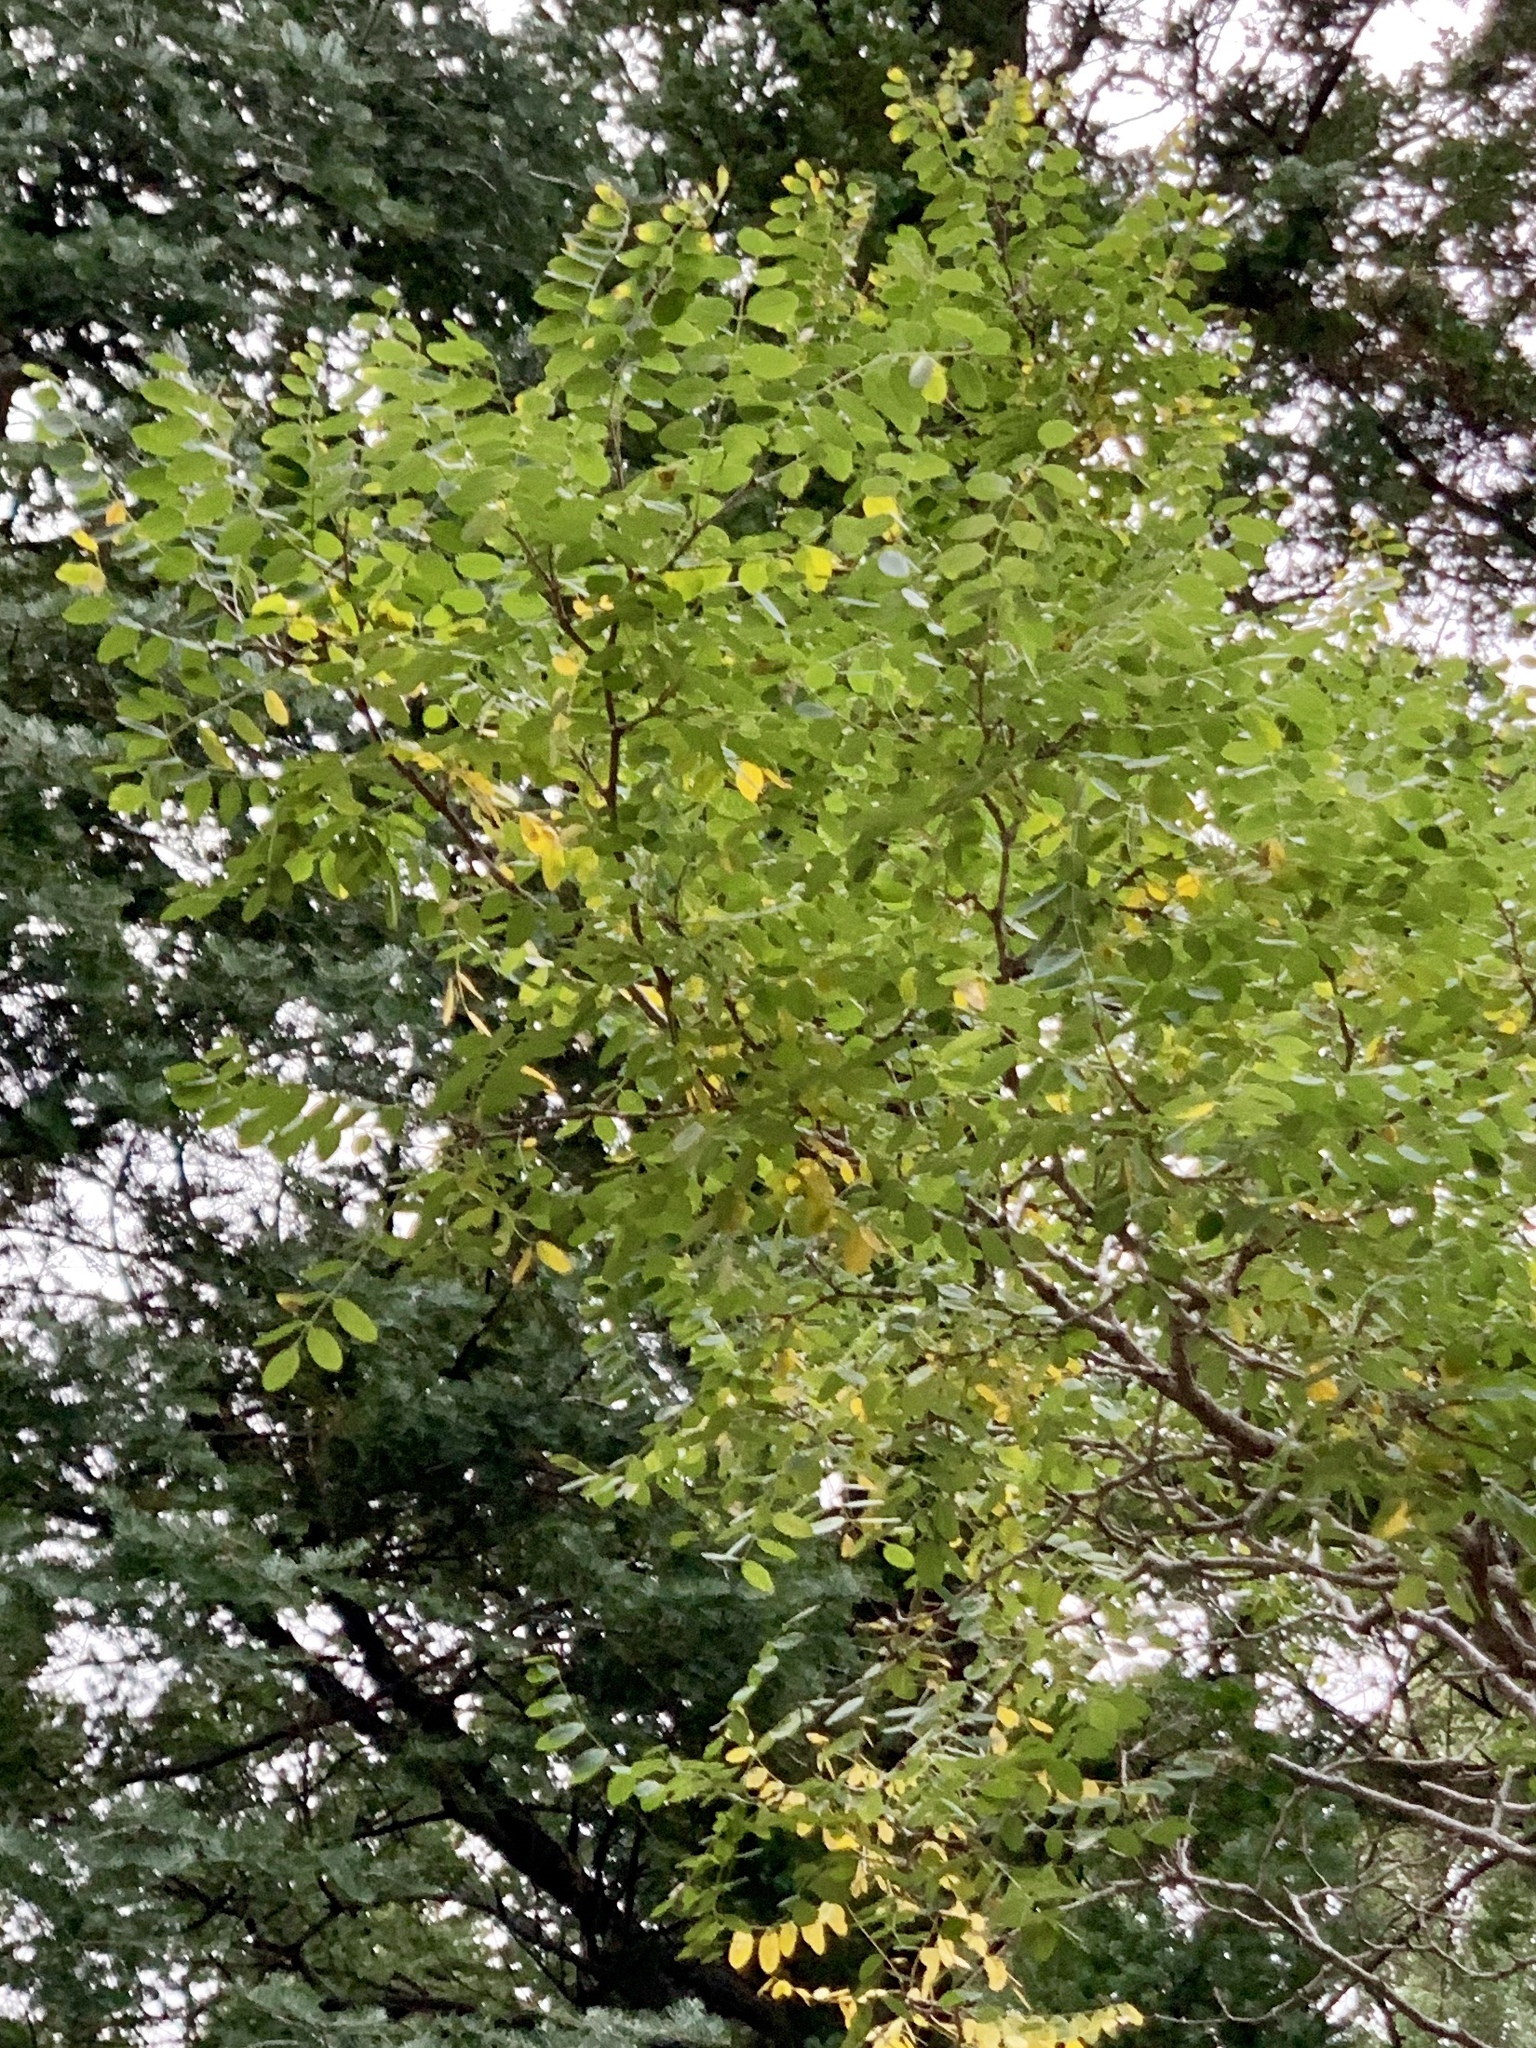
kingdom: Plantae
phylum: Tracheophyta
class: Magnoliopsida
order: Fabales
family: Fabaceae
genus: Robinia
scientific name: Robinia neomexicana
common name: New mexico locust
